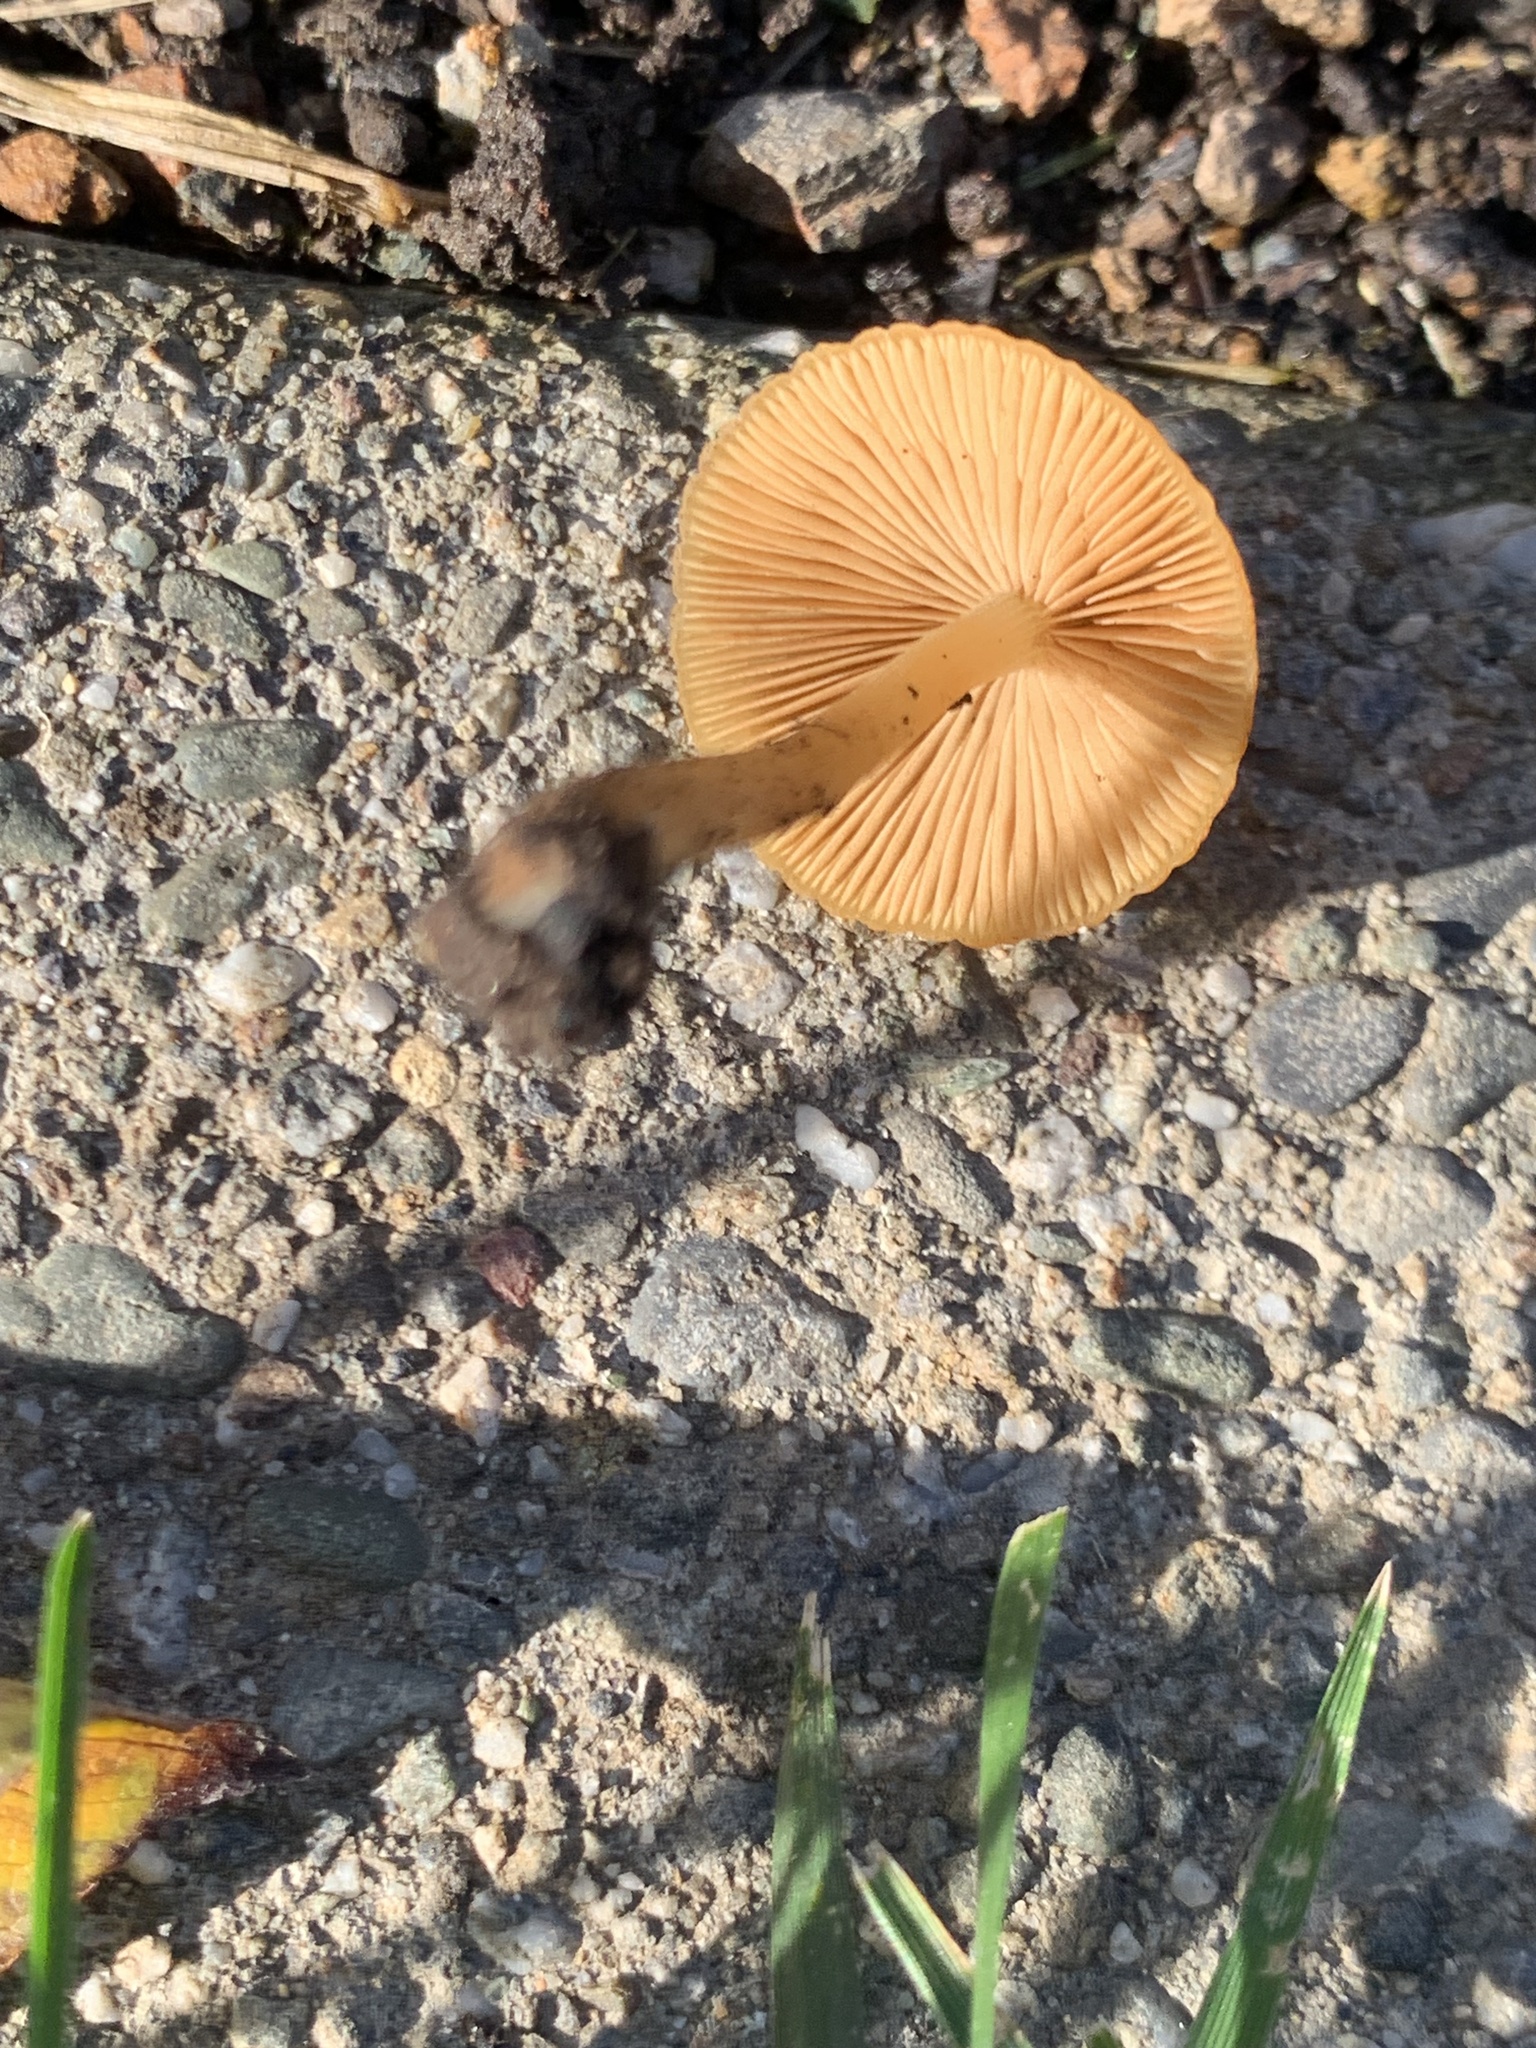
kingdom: Fungi
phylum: Basidiomycota
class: Agaricomycetes
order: Agaricales
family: Bolbitiaceae
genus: Conocybe
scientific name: Conocybe aurea
